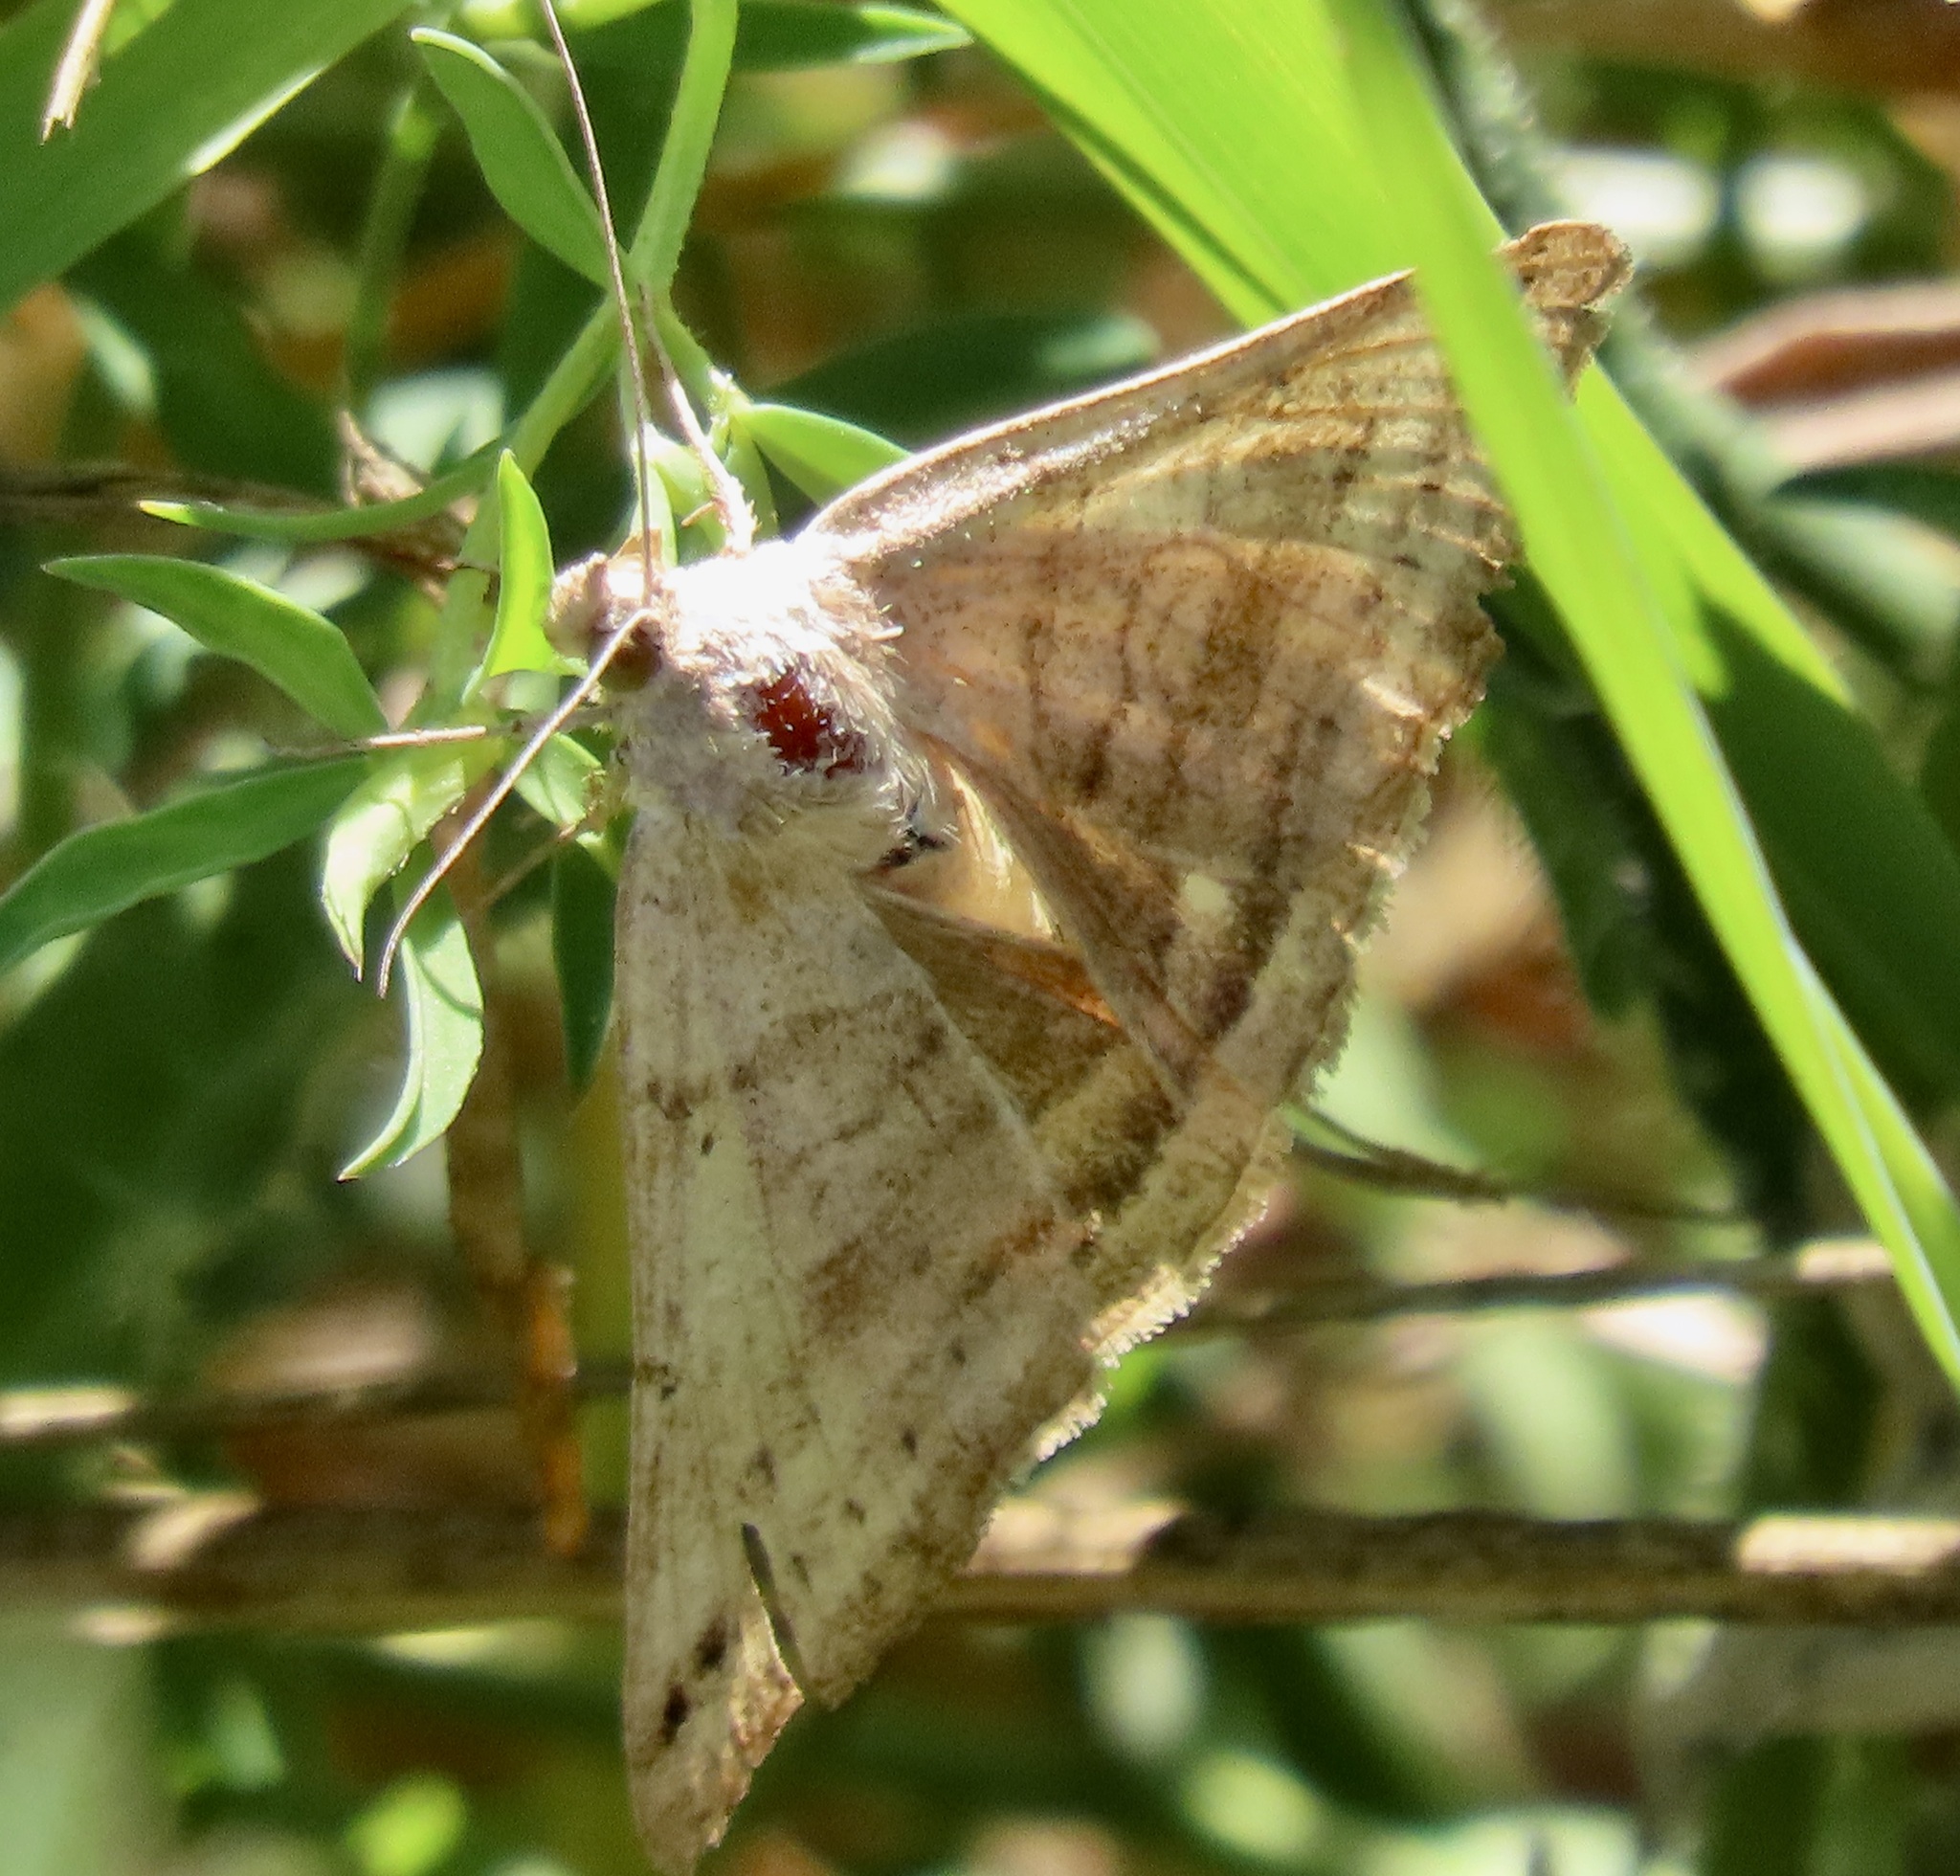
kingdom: Animalia
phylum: Arthropoda
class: Insecta
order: Lepidoptera
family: Erebidae
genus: Caenurgina
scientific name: Caenurgina crassiuscula
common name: Double-barred
